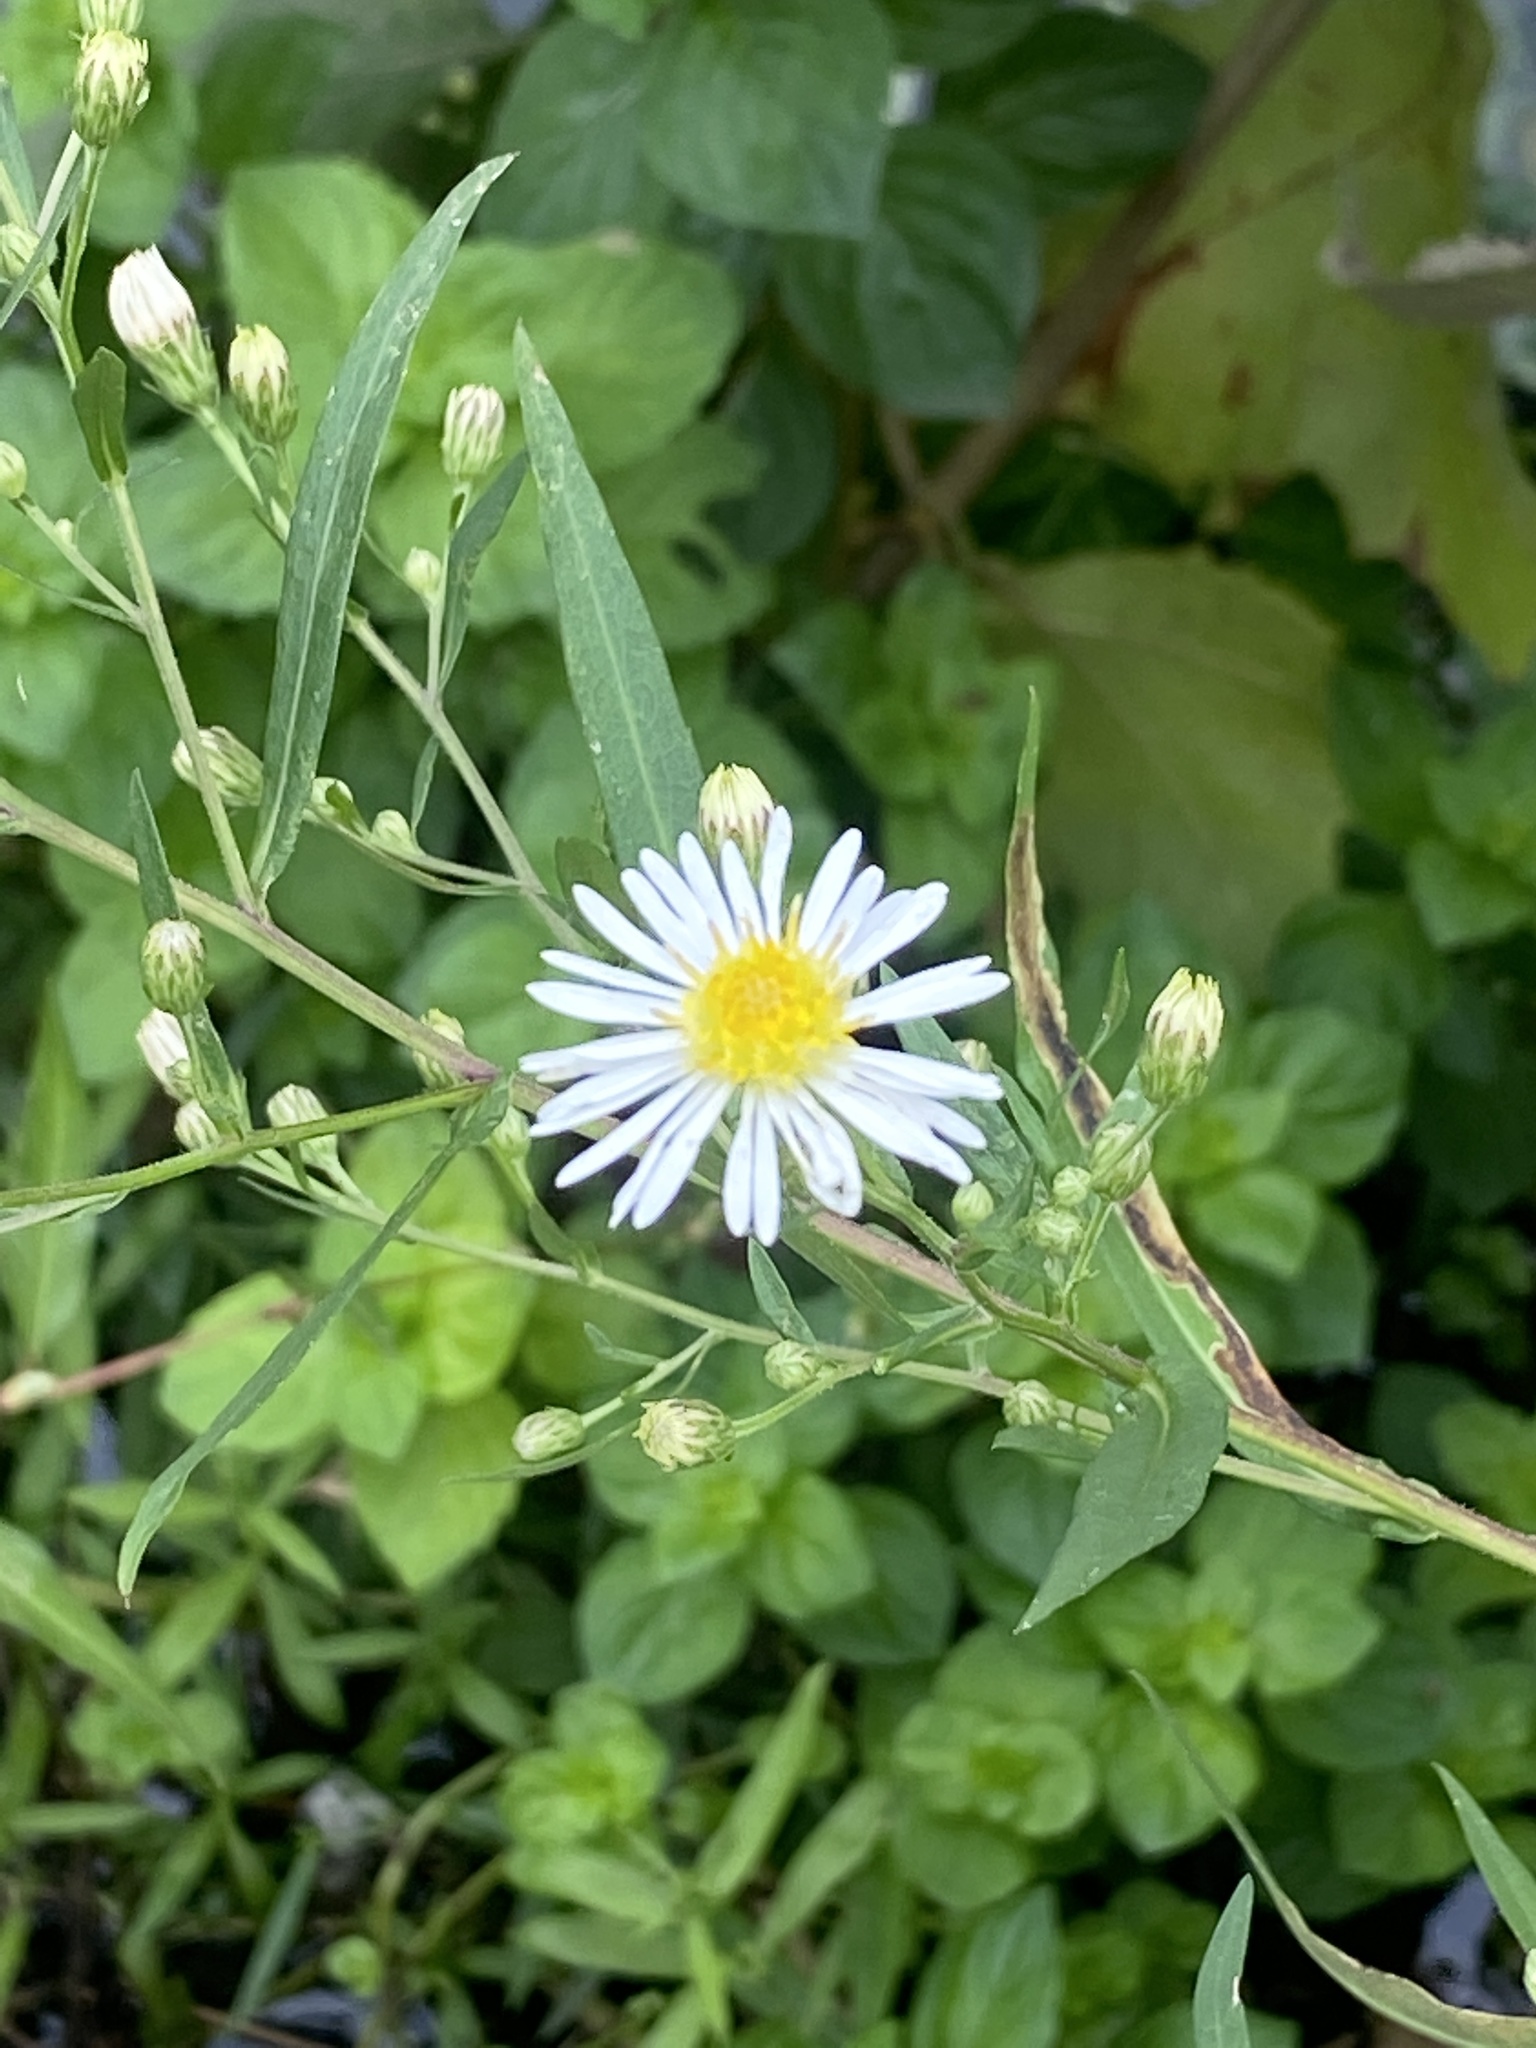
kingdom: Plantae
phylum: Tracheophyta
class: Magnoliopsida
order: Asterales
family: Asteraceae
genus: Symphyotrichum
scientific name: Symphyotrichum lanceolatum
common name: Panicled aster
